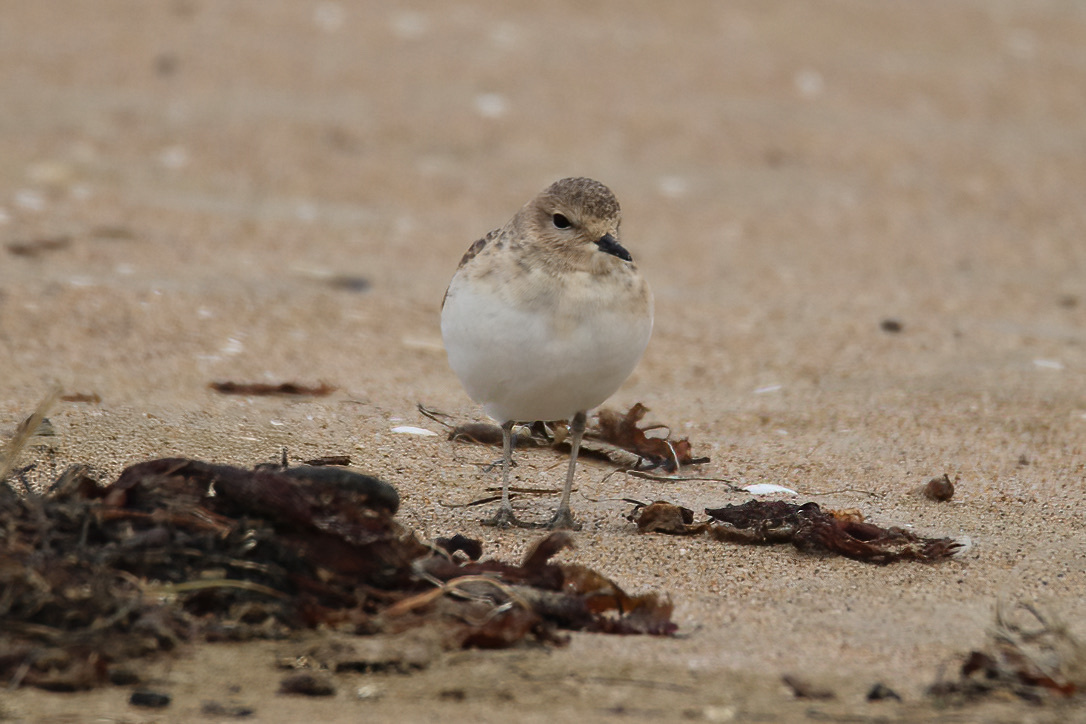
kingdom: Animalia
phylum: Chordata
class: Aves
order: Charadriiformes
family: Charadriidae
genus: Anarhynchus
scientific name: Anarhynchus
